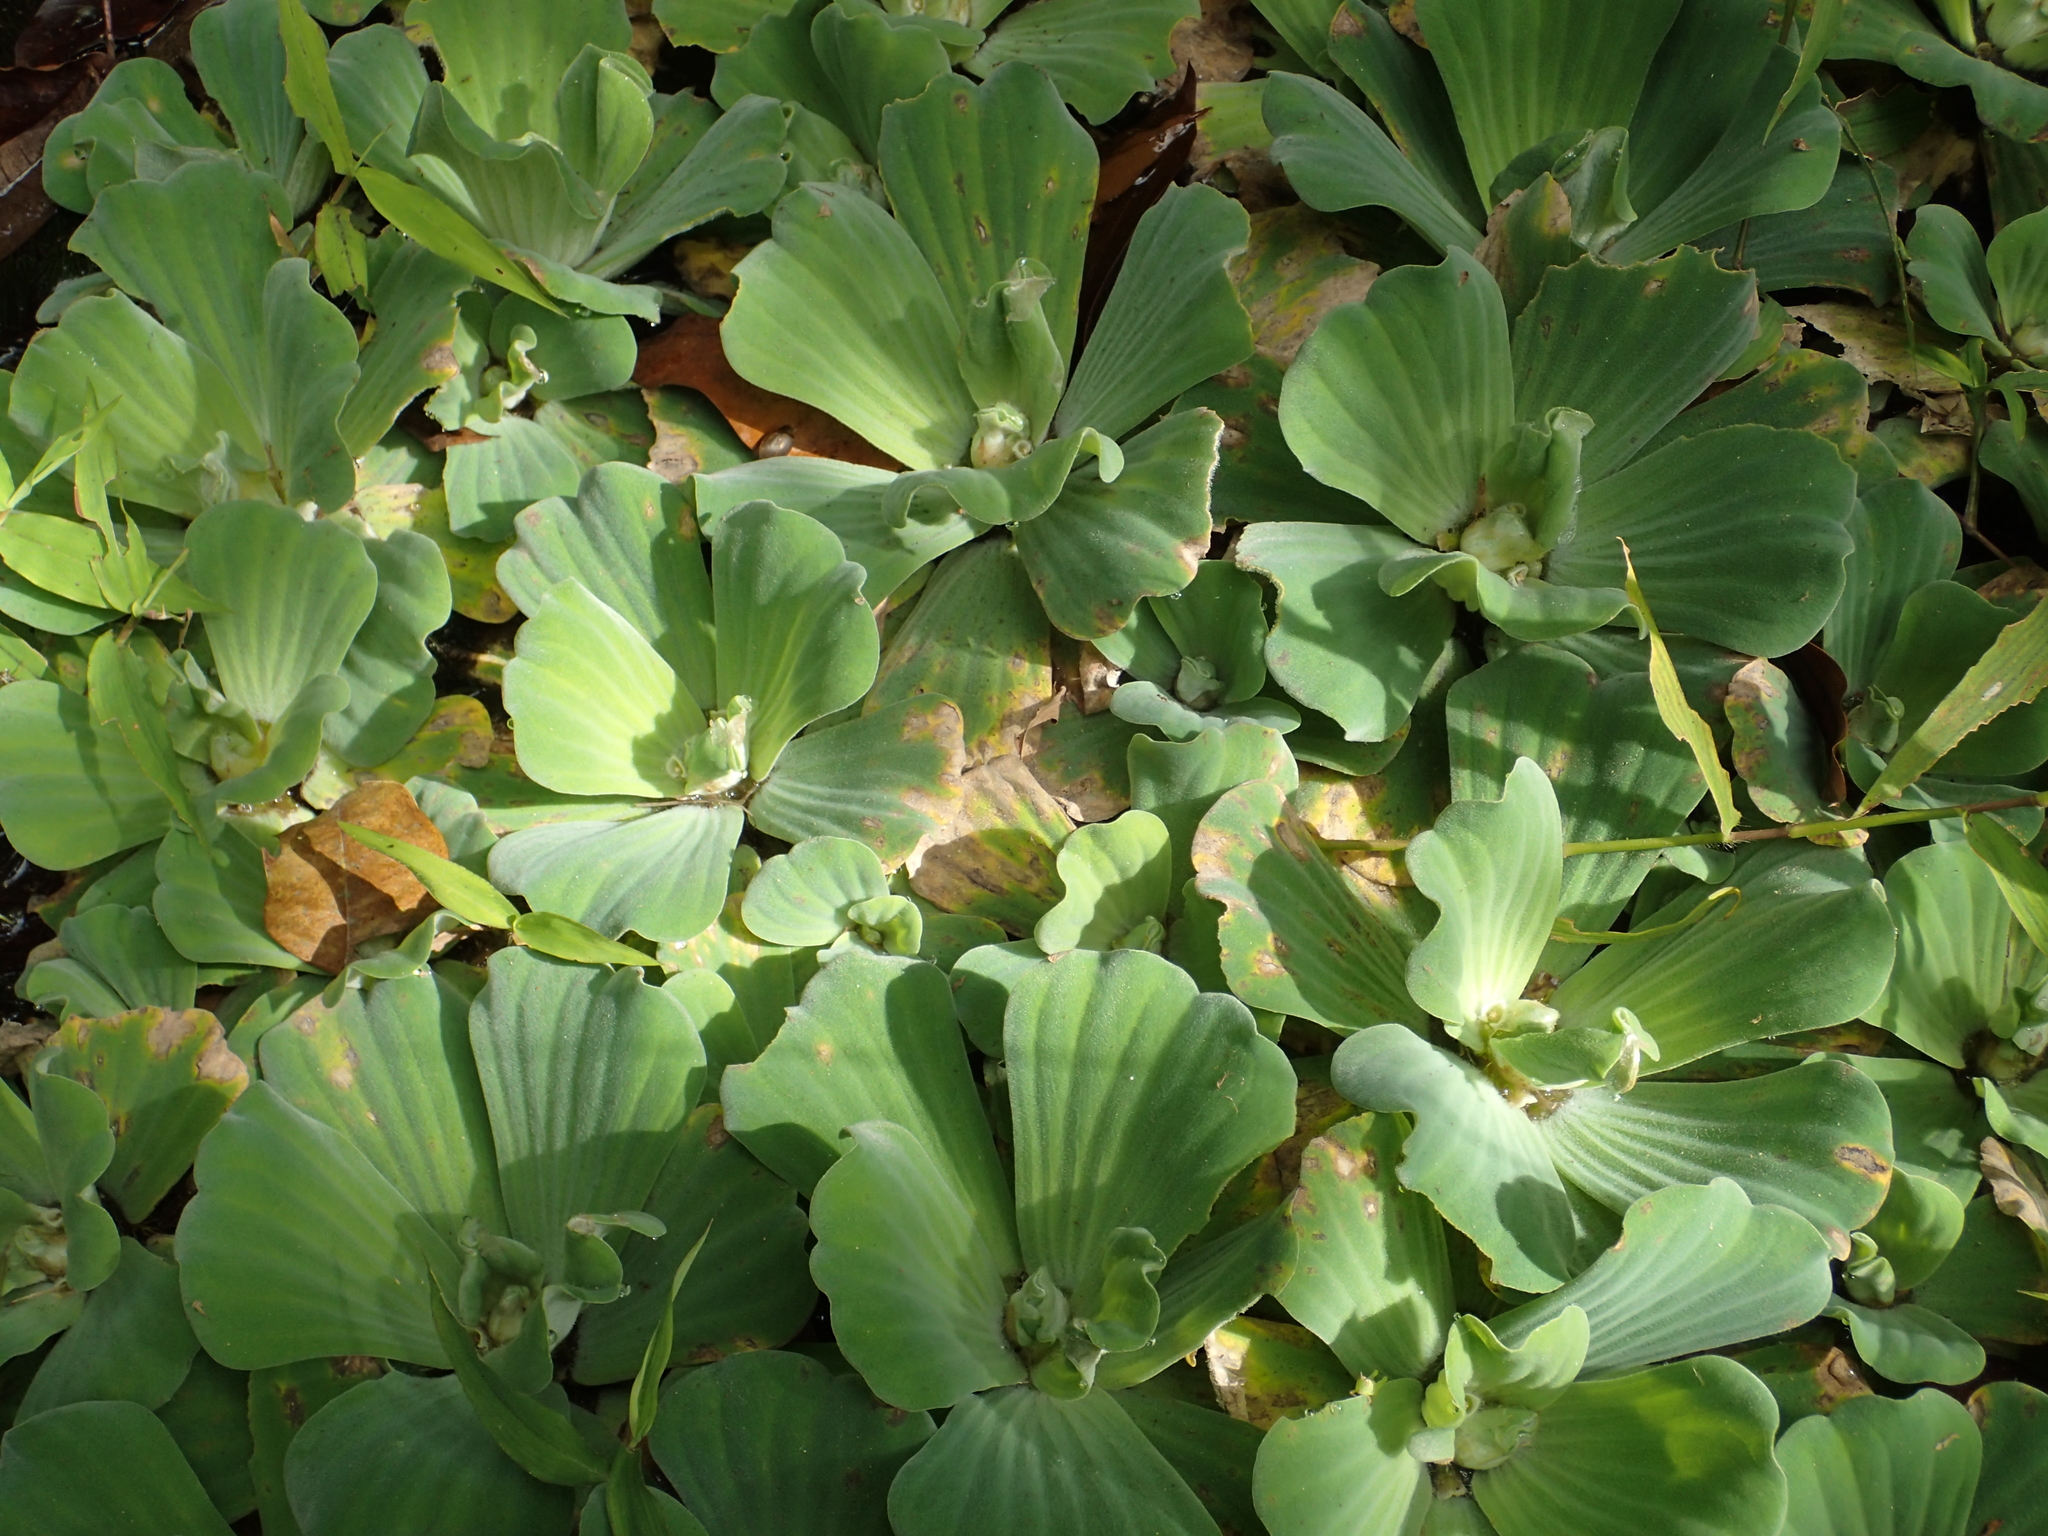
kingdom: Plantae
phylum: Tracheophyta
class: Liliopsida
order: Alismatales
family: Araceae
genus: Pistia
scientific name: Pistia stratiotes
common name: Water lettuce
